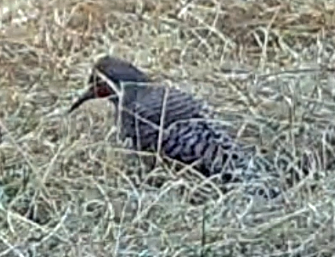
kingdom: Animalia
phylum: Chordata
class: Aves
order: Piciformes
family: Picidae
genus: Colaptes
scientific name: Colaptes auratus
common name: Northern flicker
